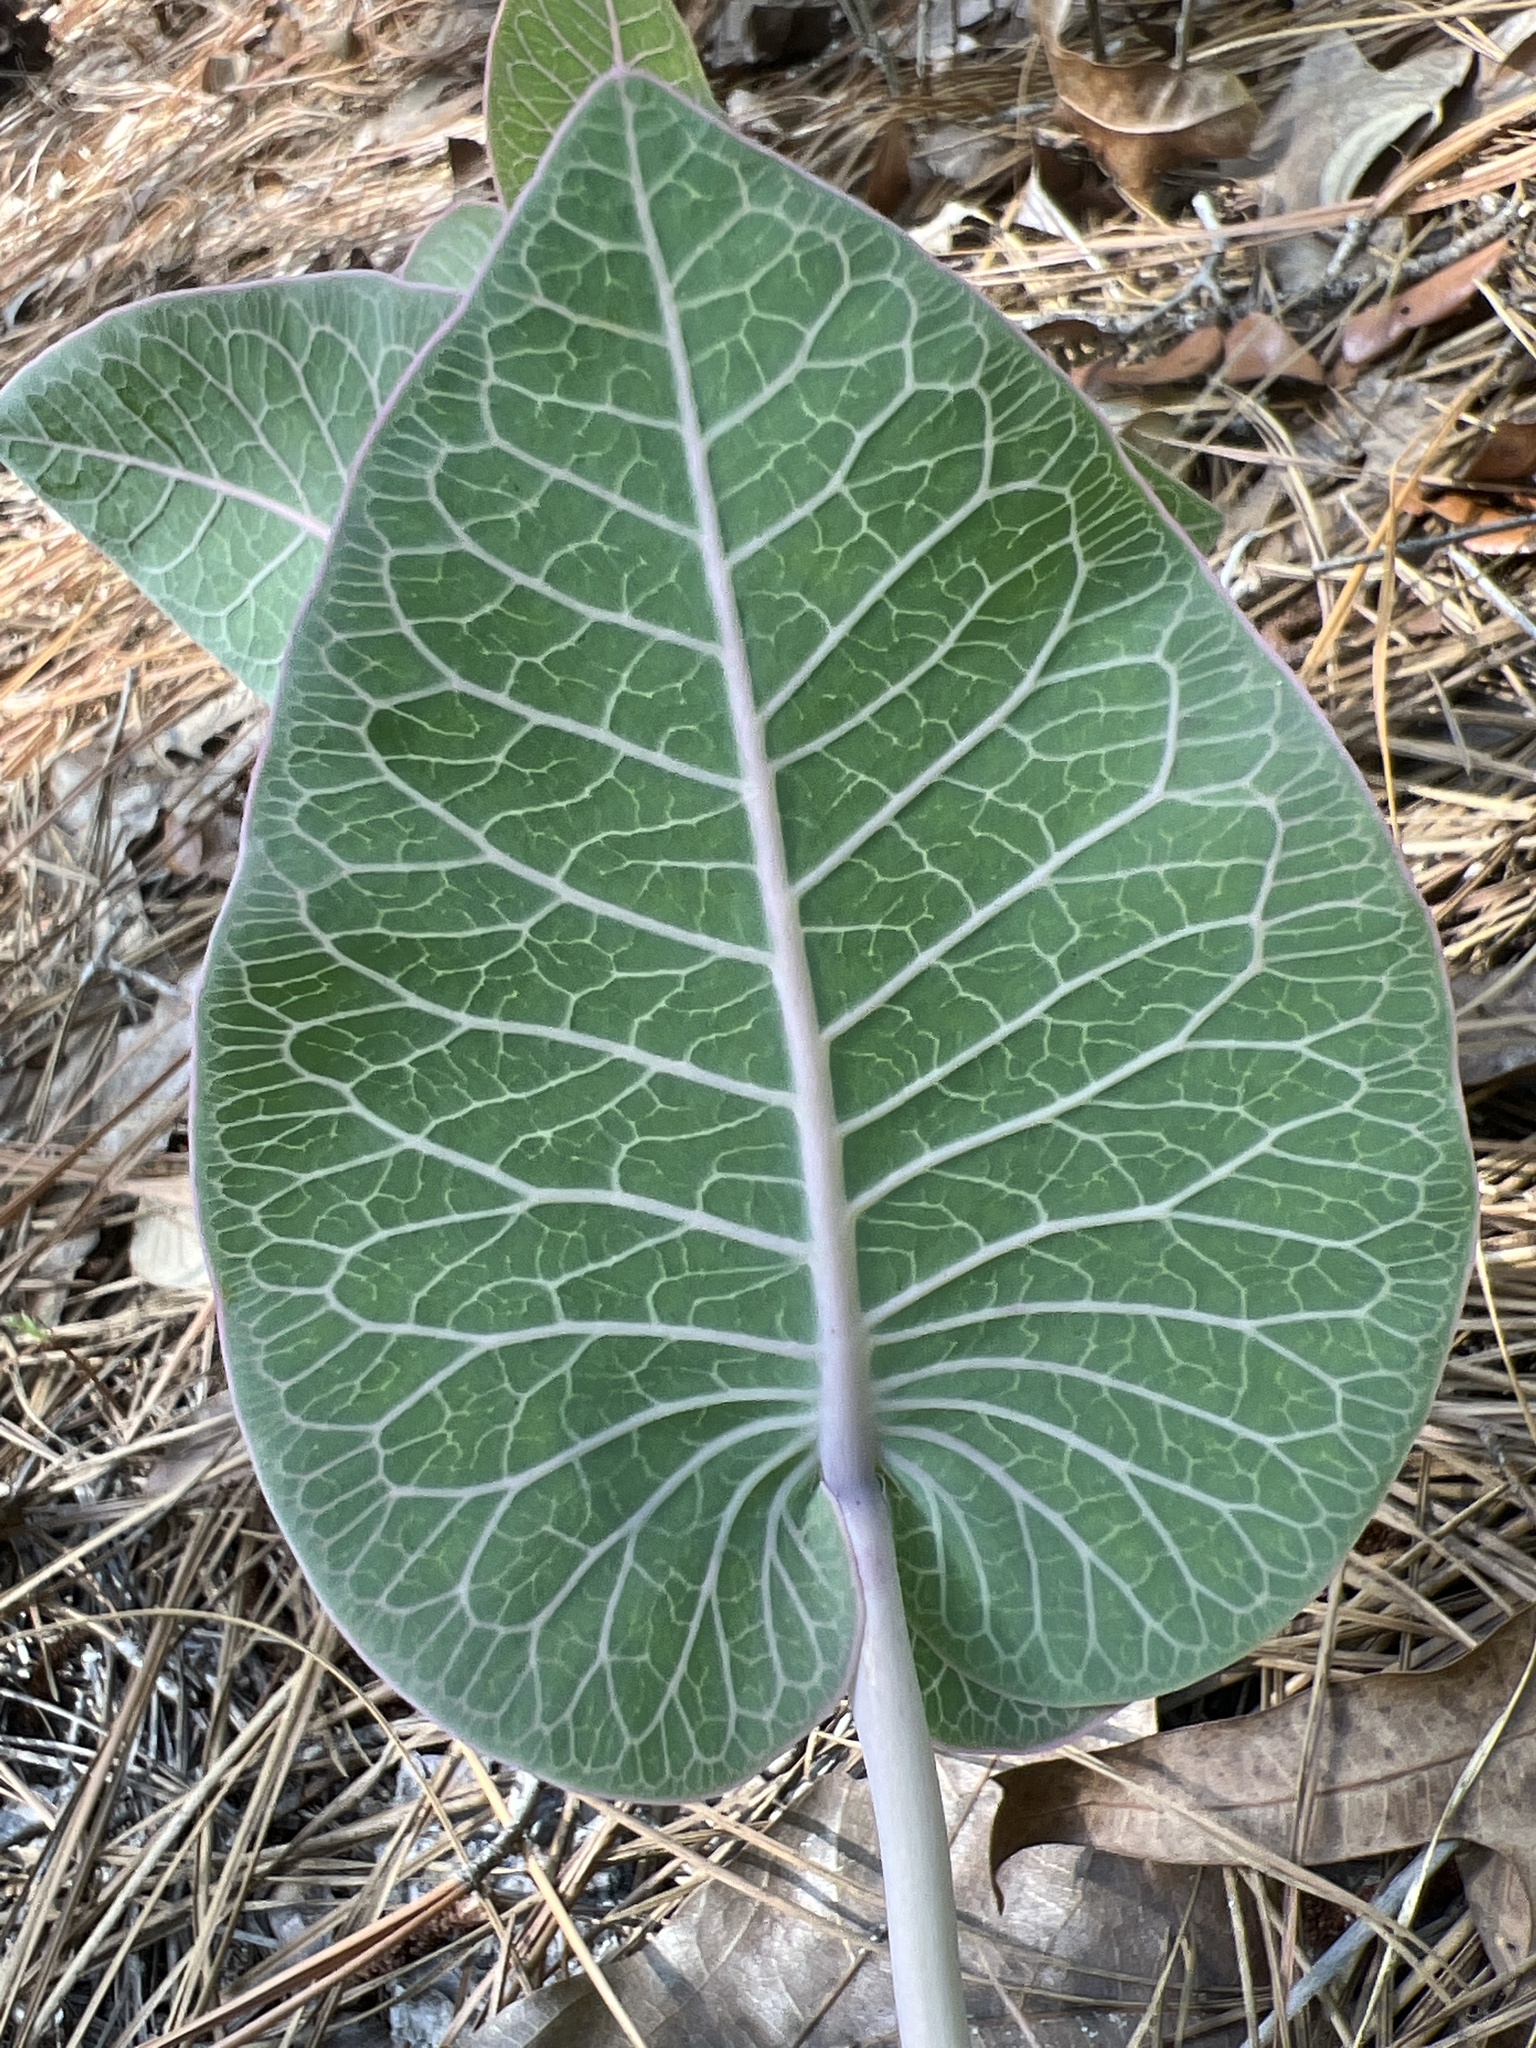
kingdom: Plantae
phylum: Tracheophyta
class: Magnoliopsida
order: Gentianales
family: Apocynaceae
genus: Asclepias
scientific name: Asclepias humistrata
